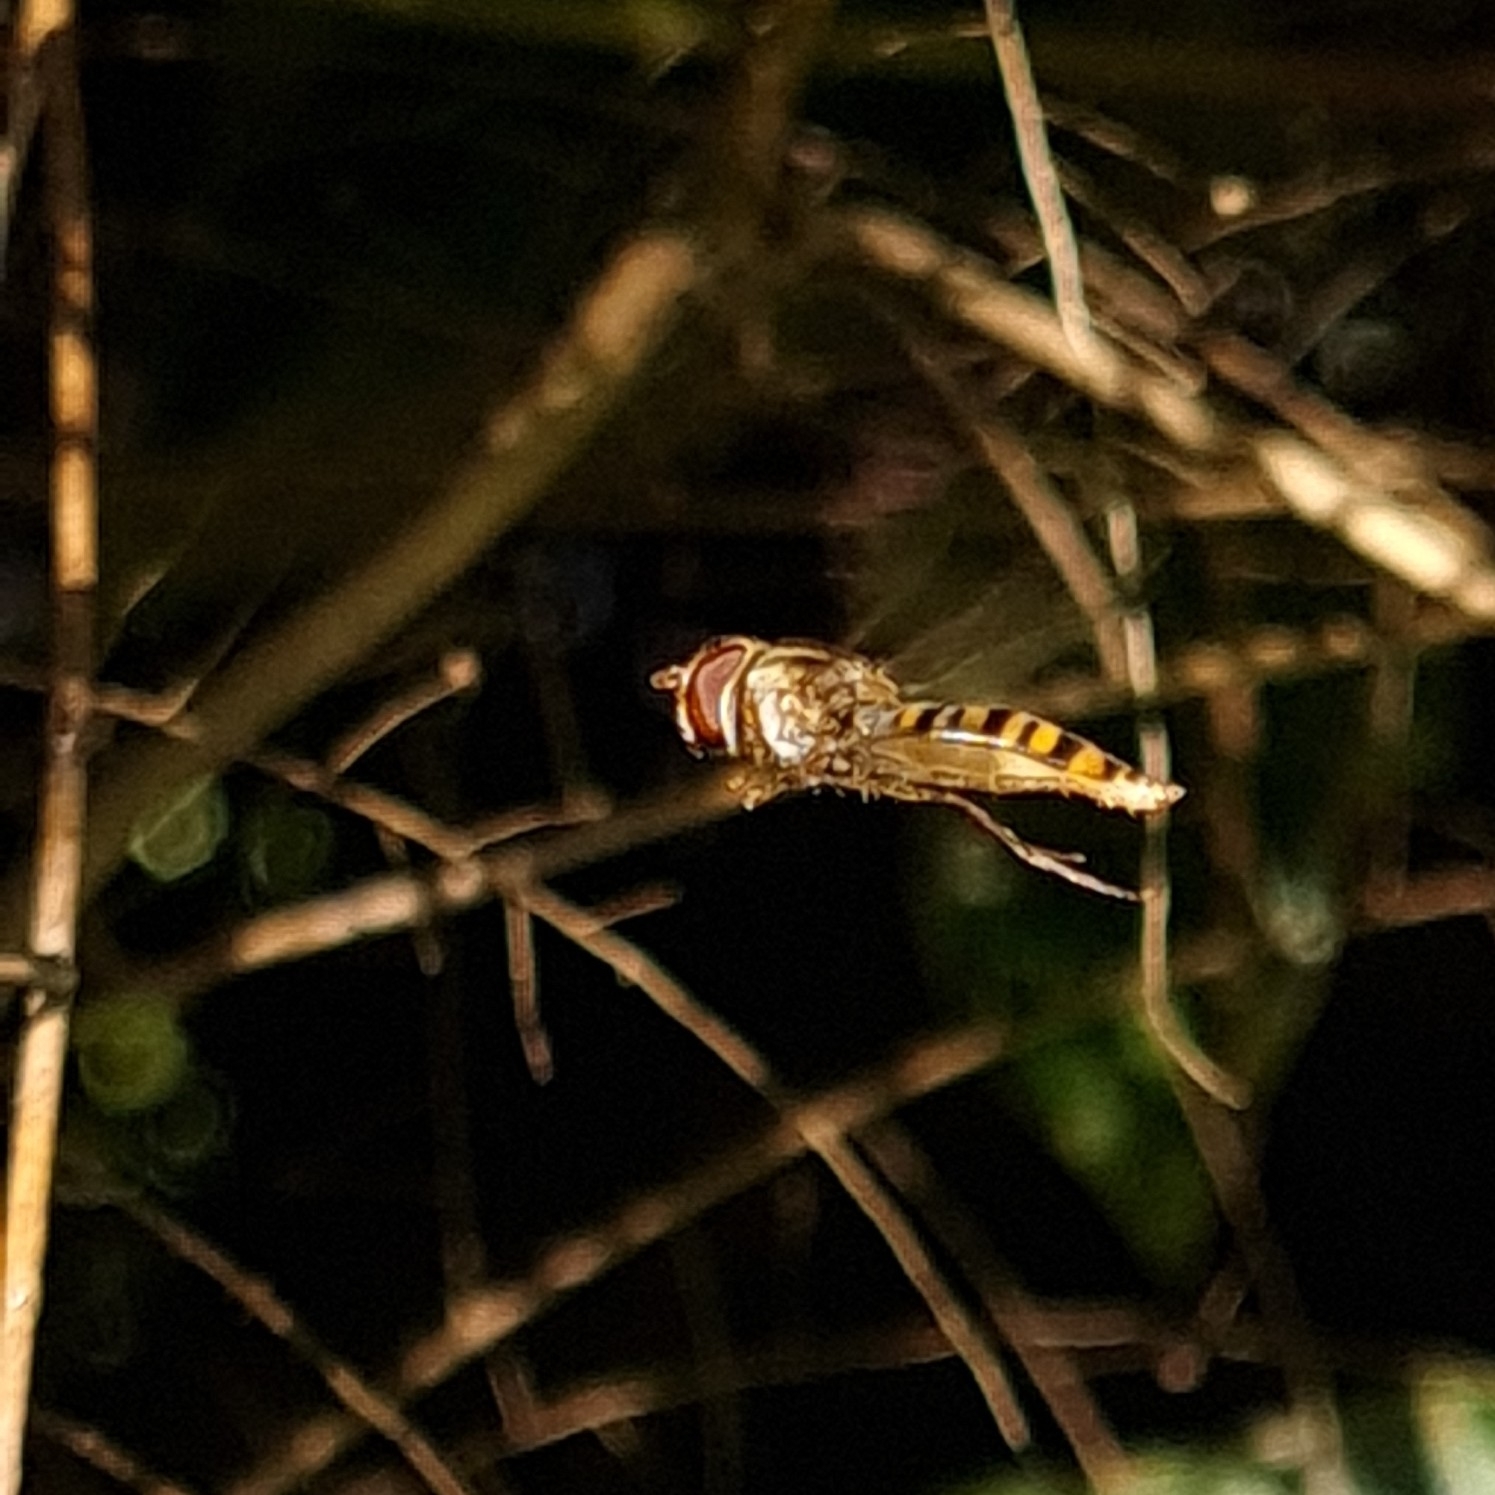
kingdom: Animalia
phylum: Arthropoda
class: Insecta
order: Diptera
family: Syrphidae
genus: Episyrphus
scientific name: Episyrphus balteatus
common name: Marmalade hoverfly
